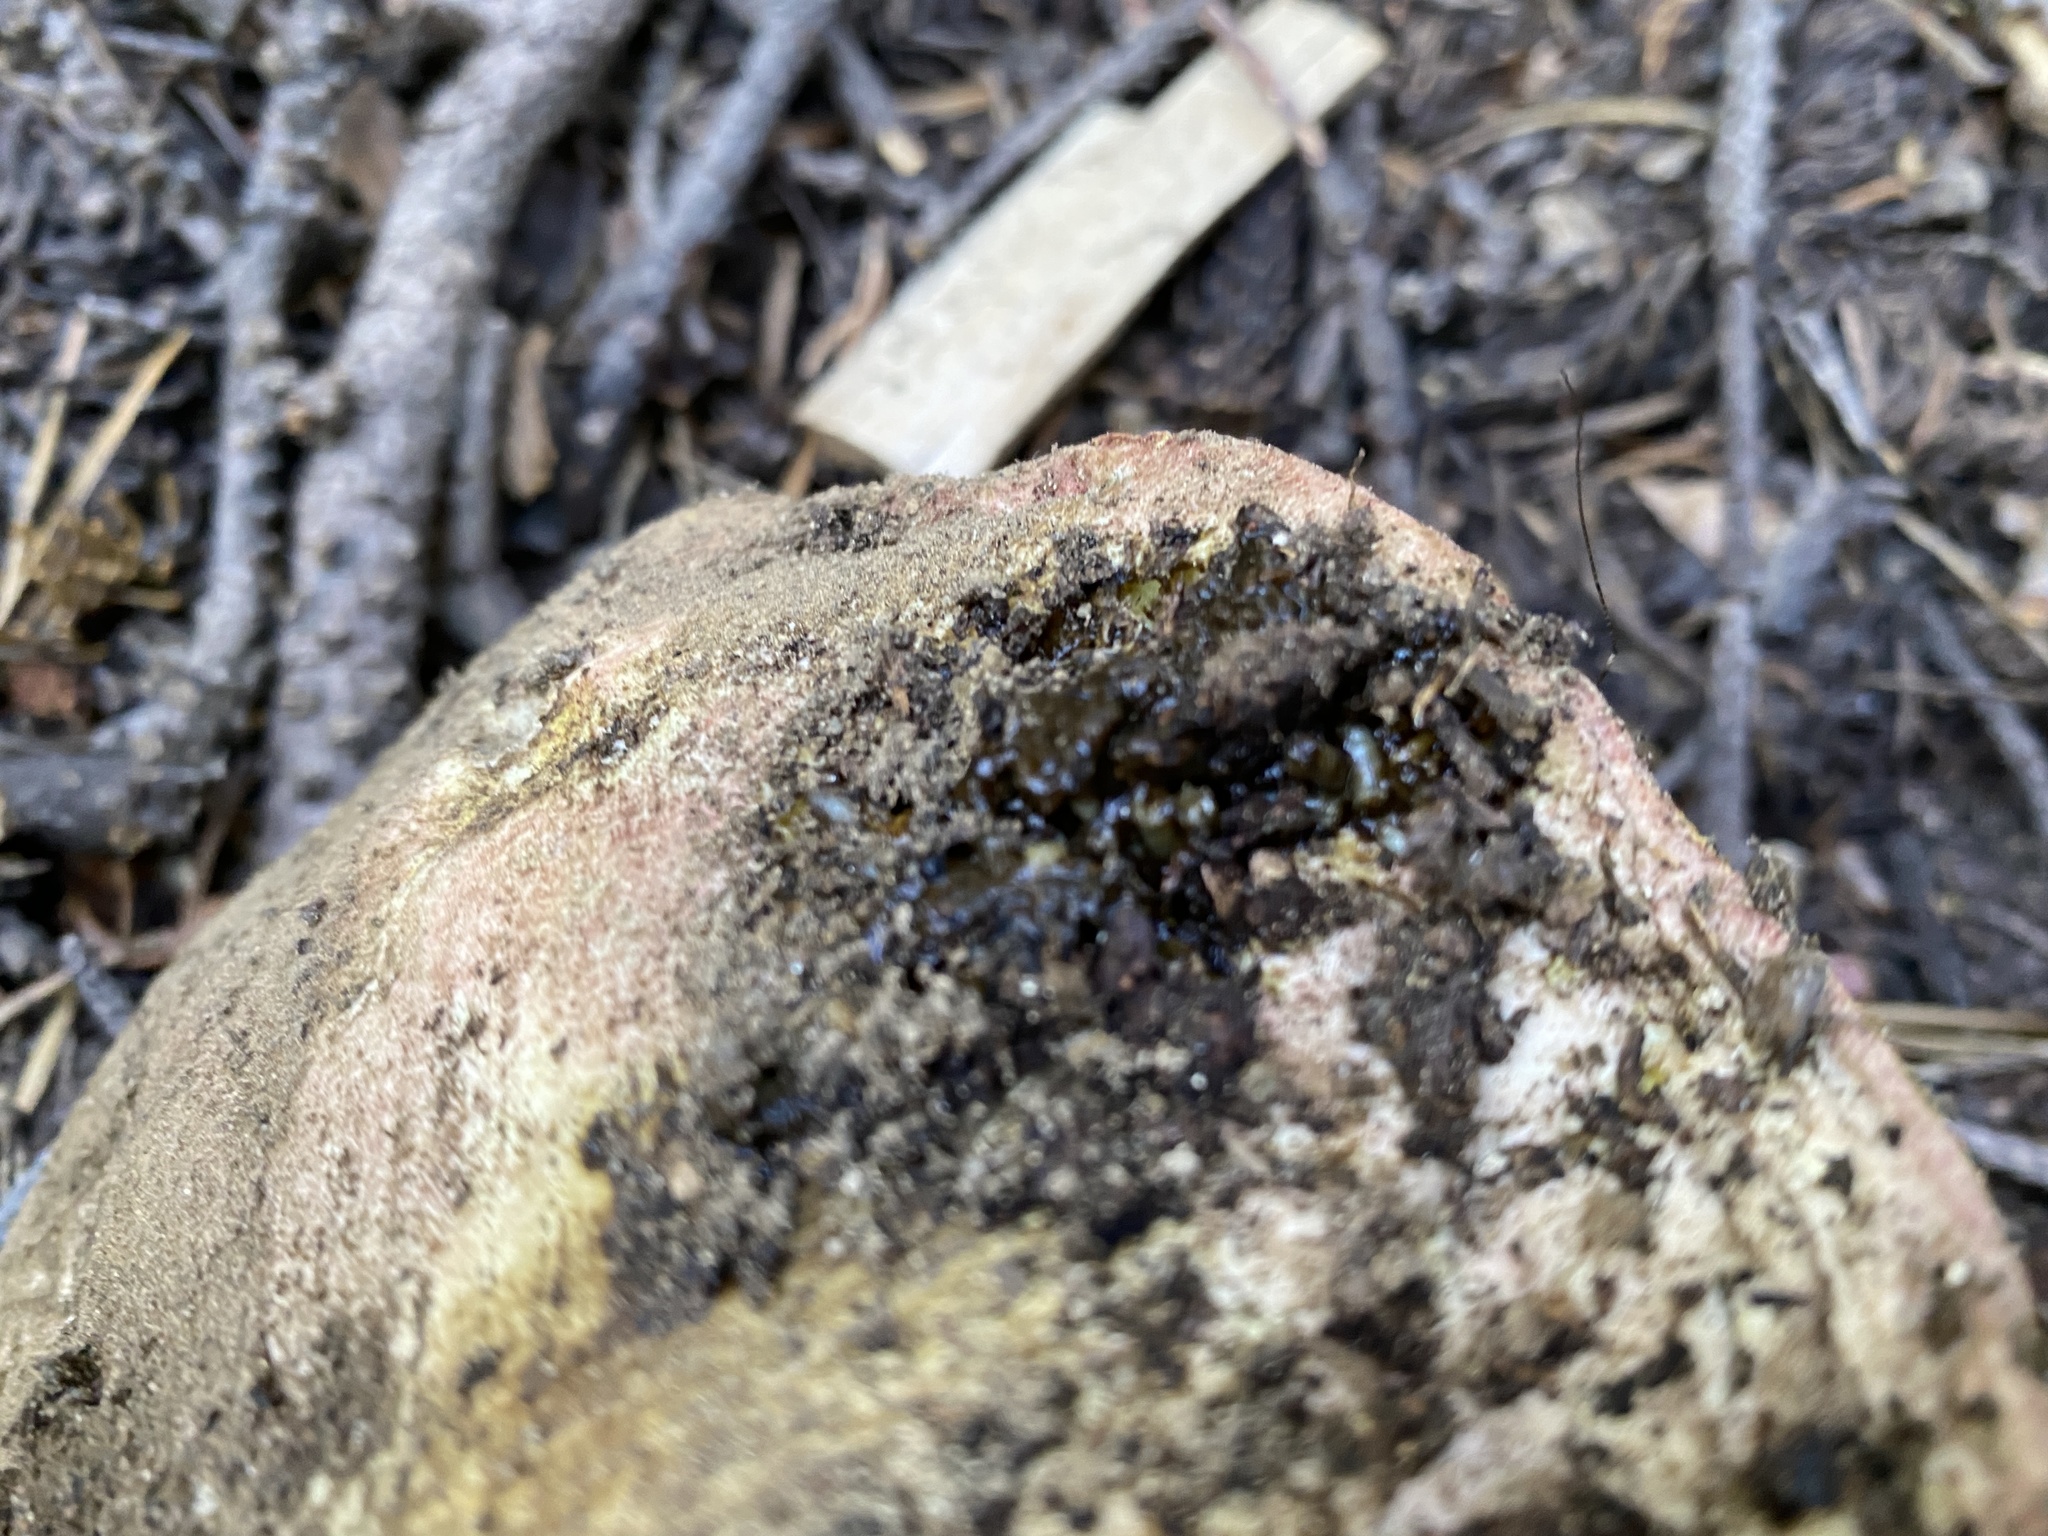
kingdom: Fungi
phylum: Basidiomycota
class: Agaricomycetes
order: Boletales
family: Boletaceae
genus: Butyriboletus
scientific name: Butyriboletus abieticola
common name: Mountain butter bolete
